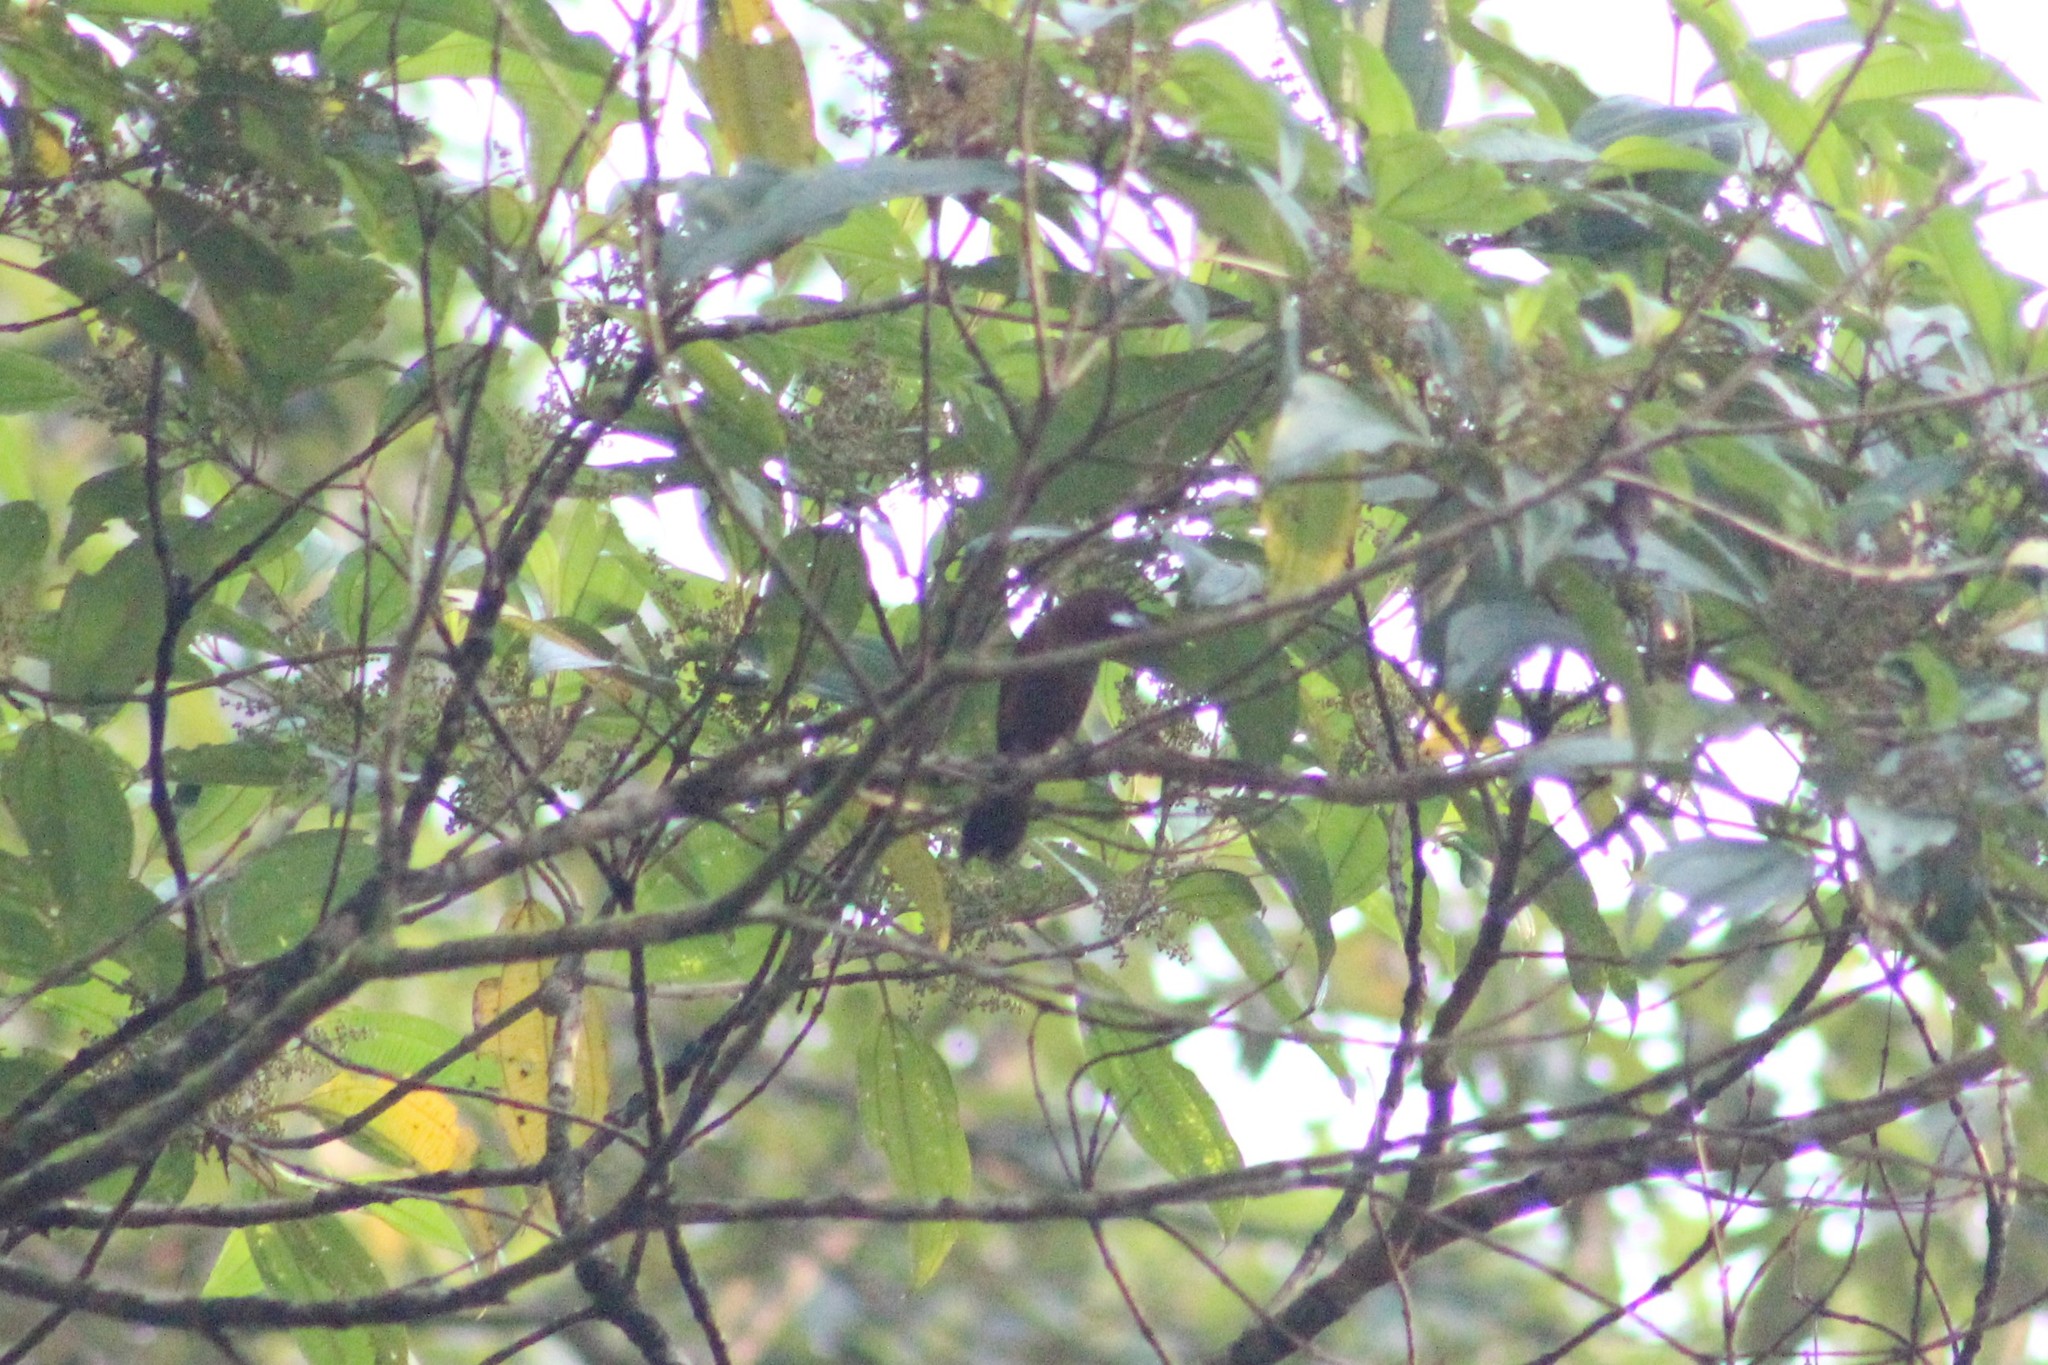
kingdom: Animalia
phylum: Chordata
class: Aves
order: Passeriformes
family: Thraupidae
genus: Ramphocelus
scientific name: Ramphocelus carbo
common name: Silver-beaked tanager
